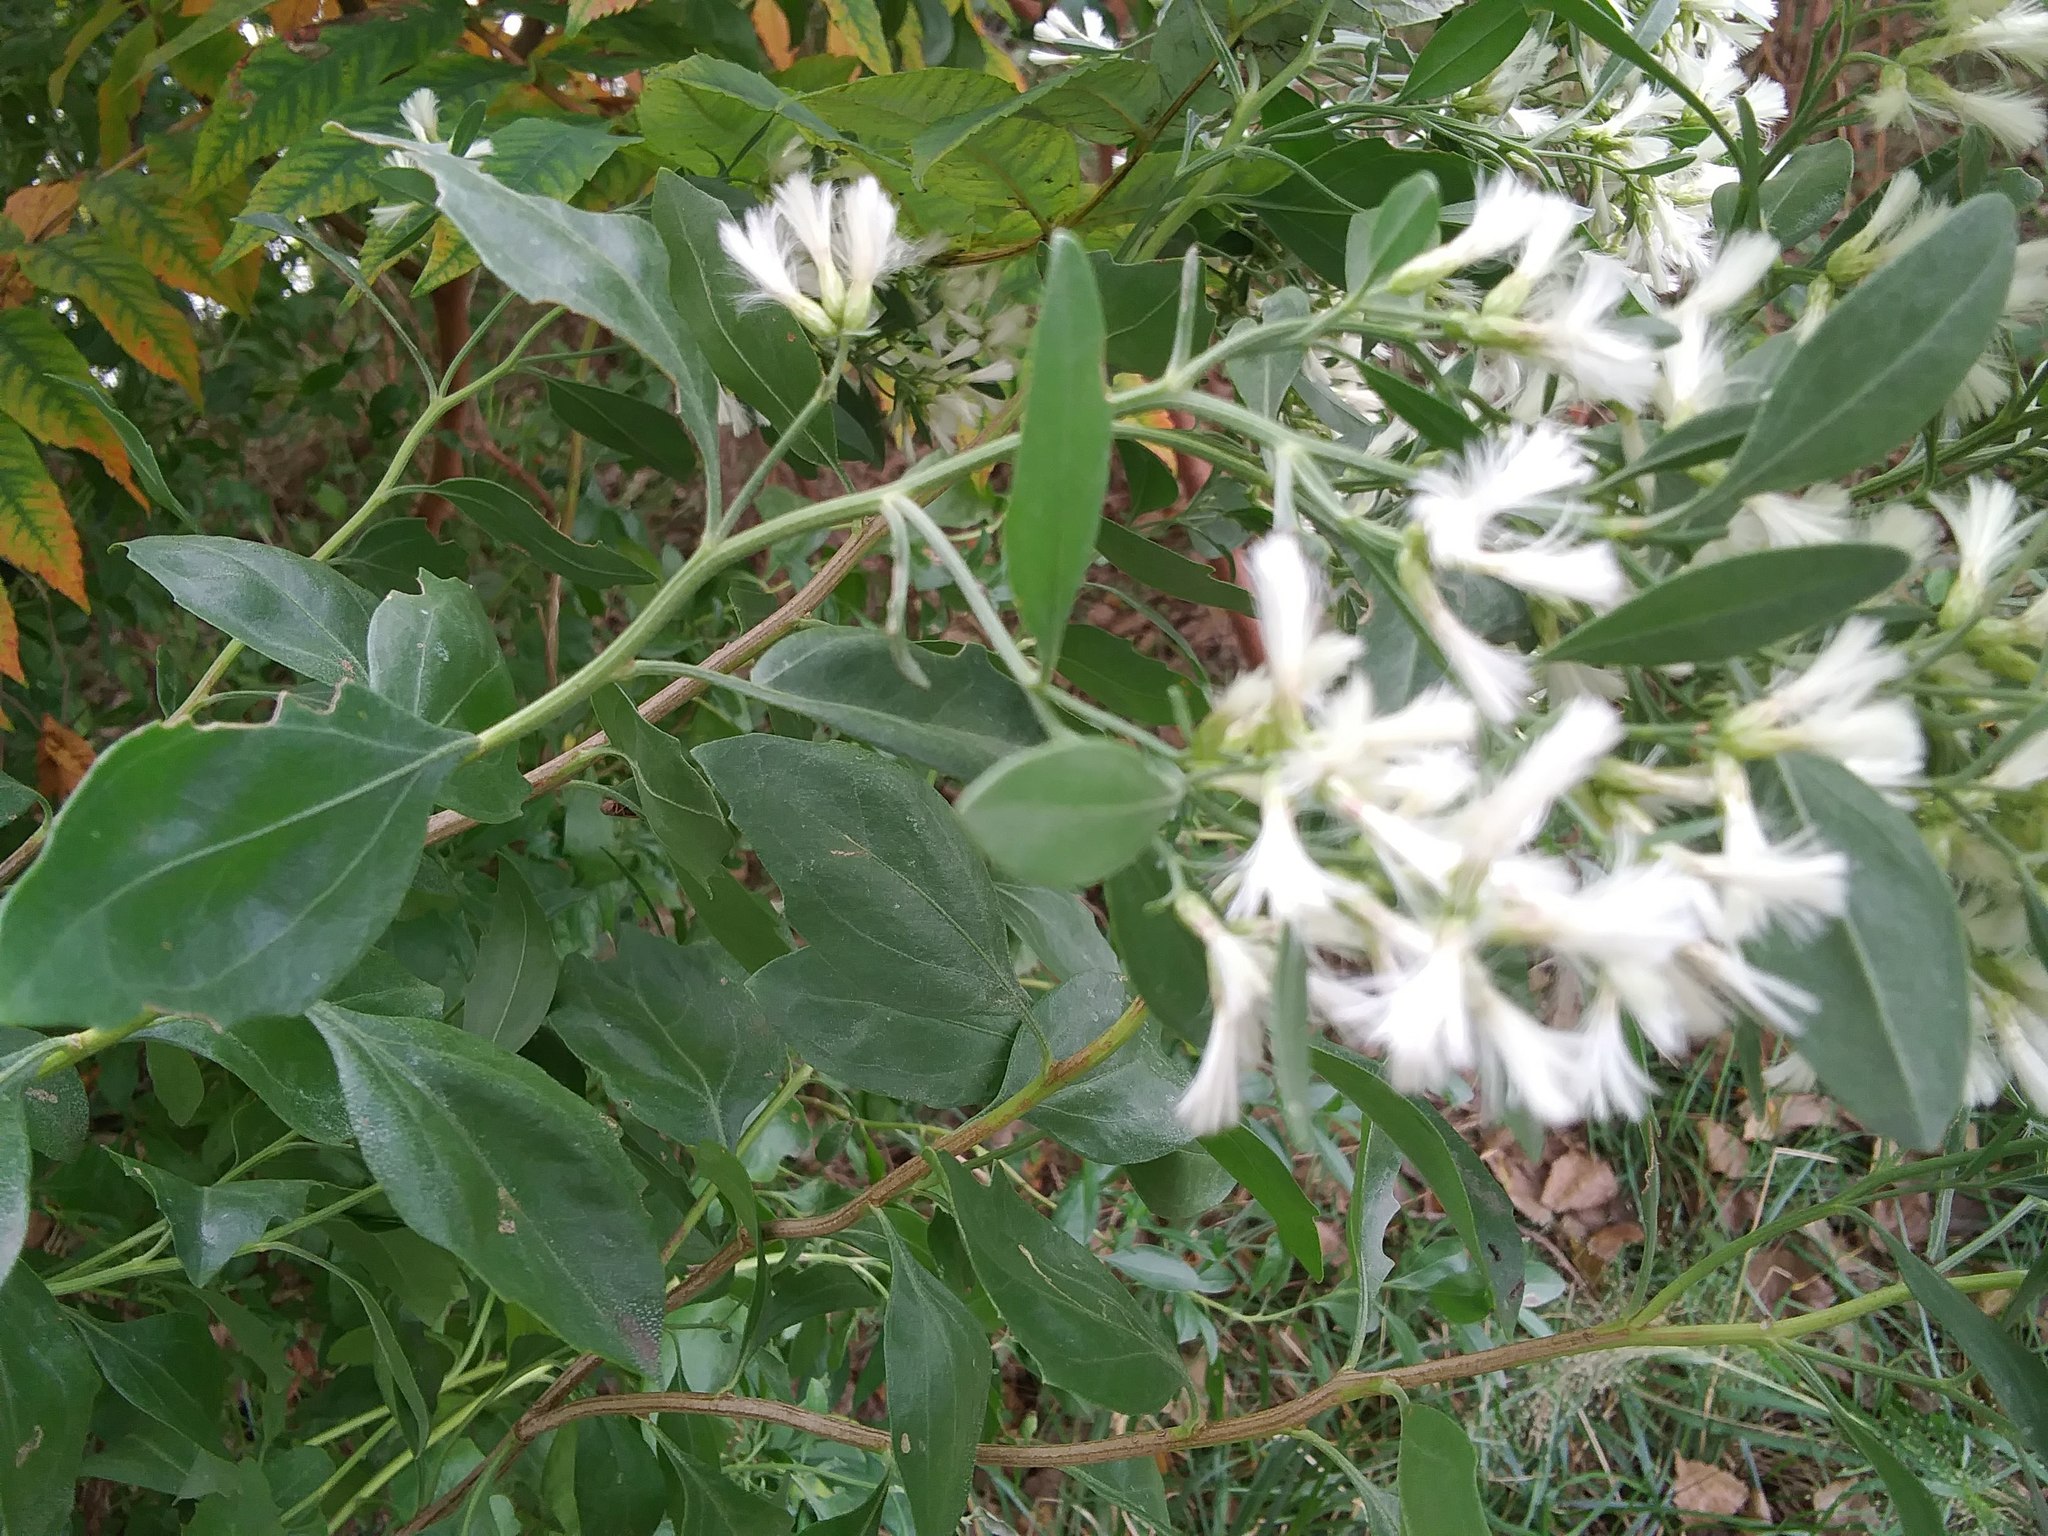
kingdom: Plantae
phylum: Tracheophyta
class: Magnoliopsida
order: Asterales
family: Asteraceae
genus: Baccharis
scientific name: Baccharis halimifolia
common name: Eastern baccharis
